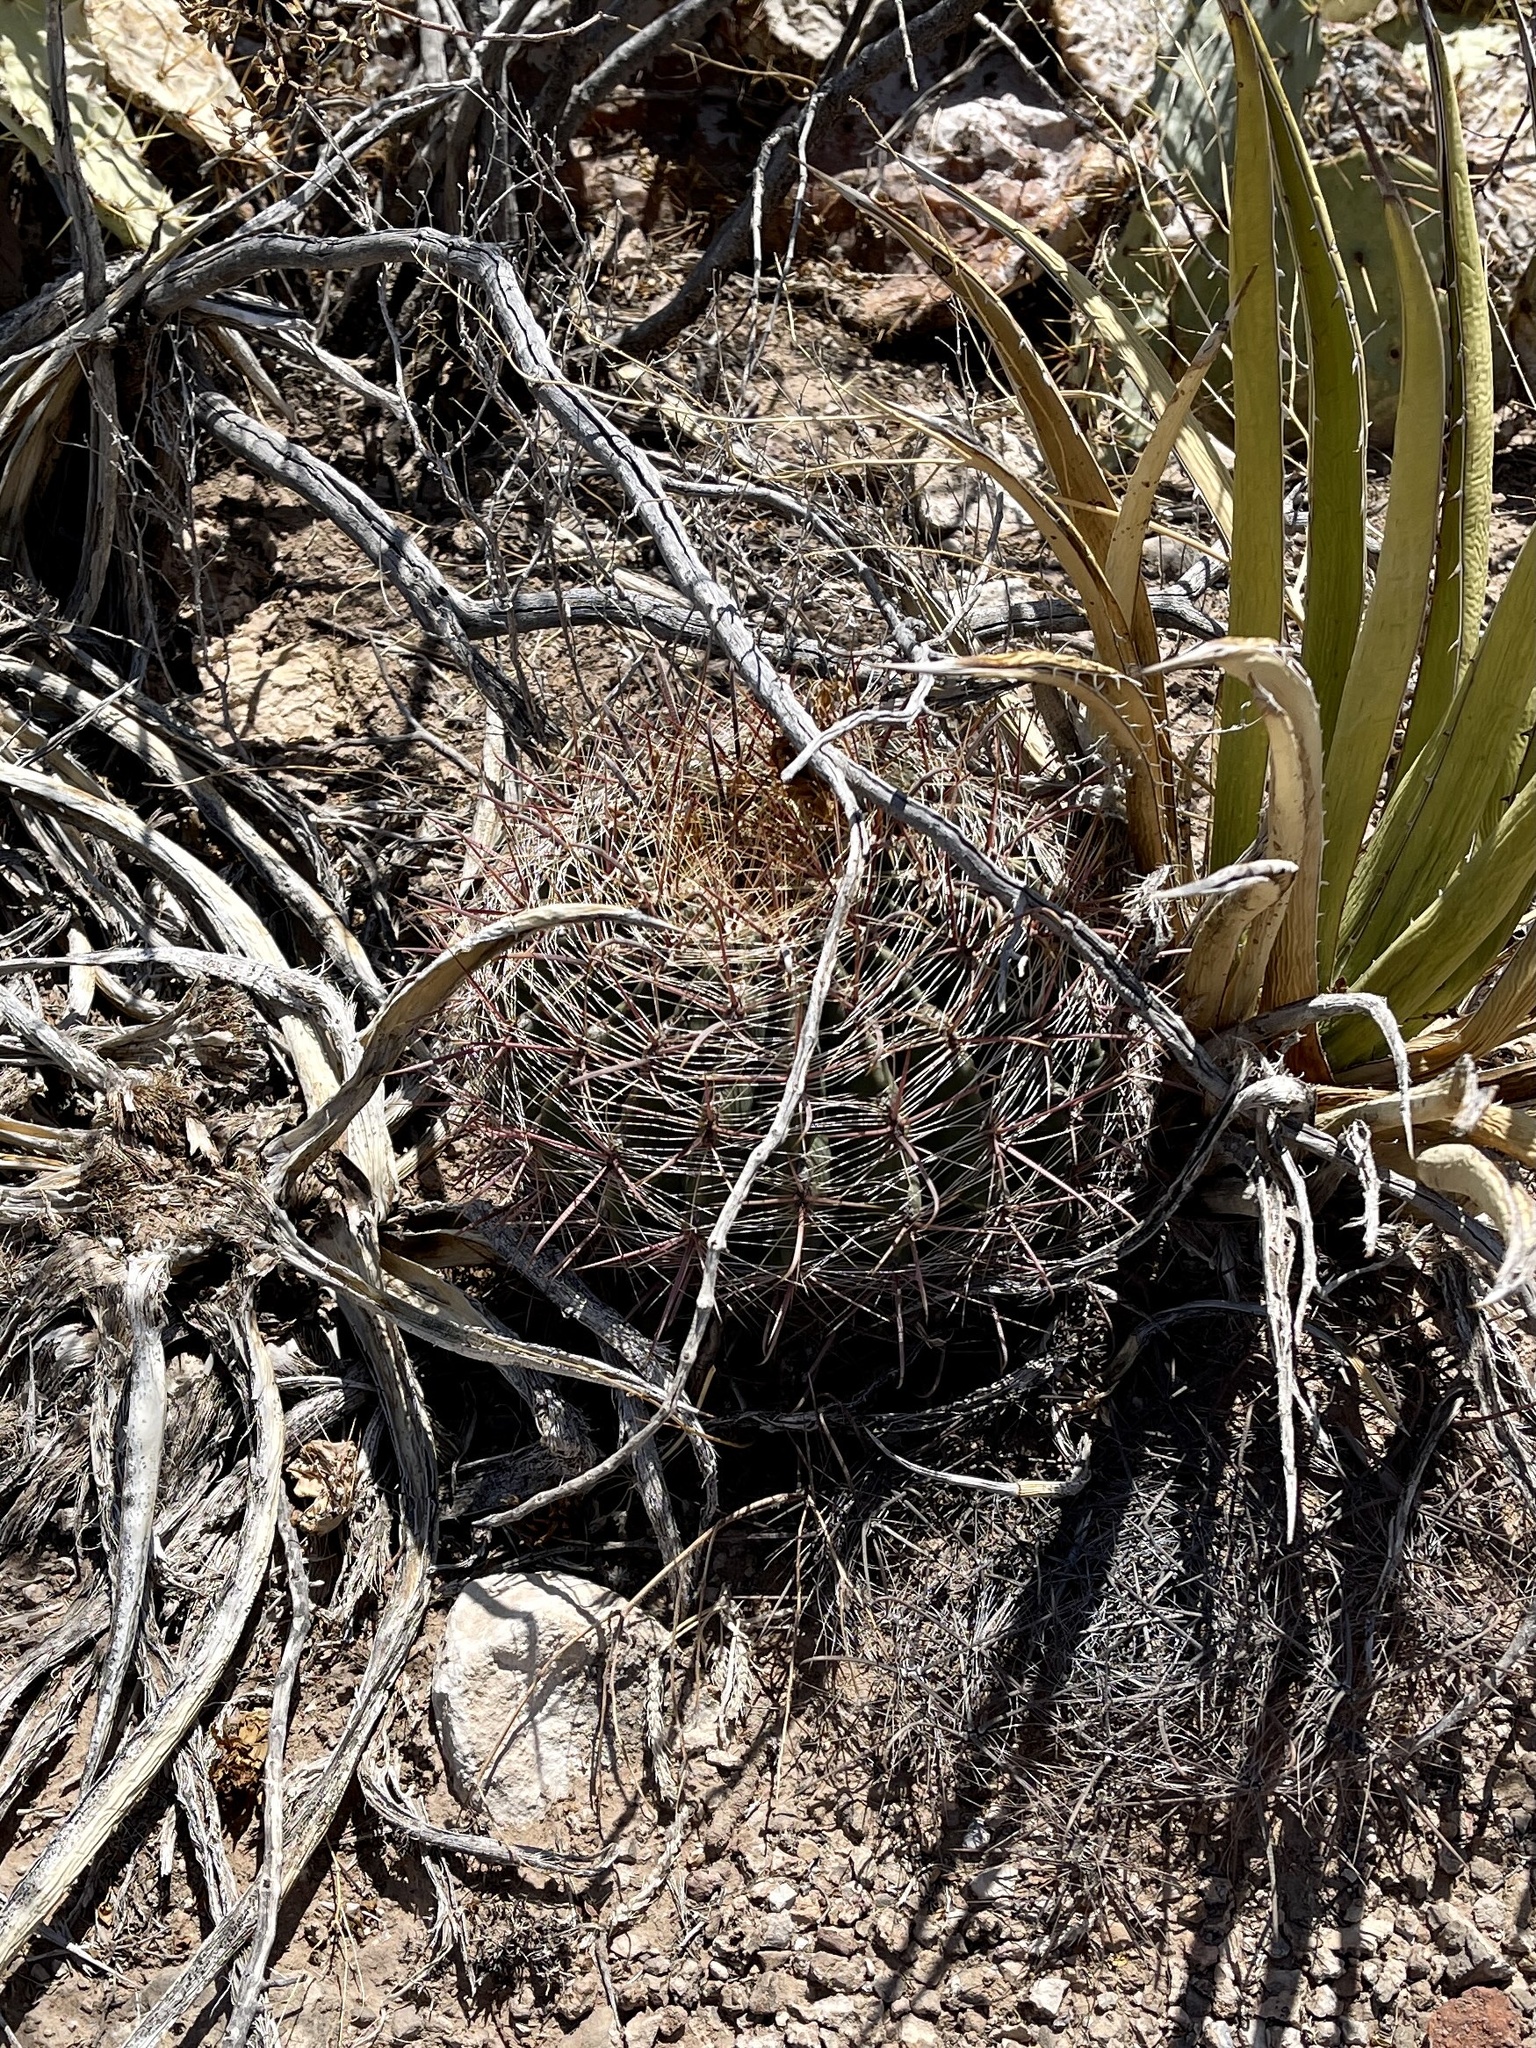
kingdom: Plantae
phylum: Tracheophyta
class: Magnoliopsida
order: Caryophyllales
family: Cactaceae
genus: Ferocactus
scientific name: Ferocactus wislizeni
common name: Candy barrel cactus
